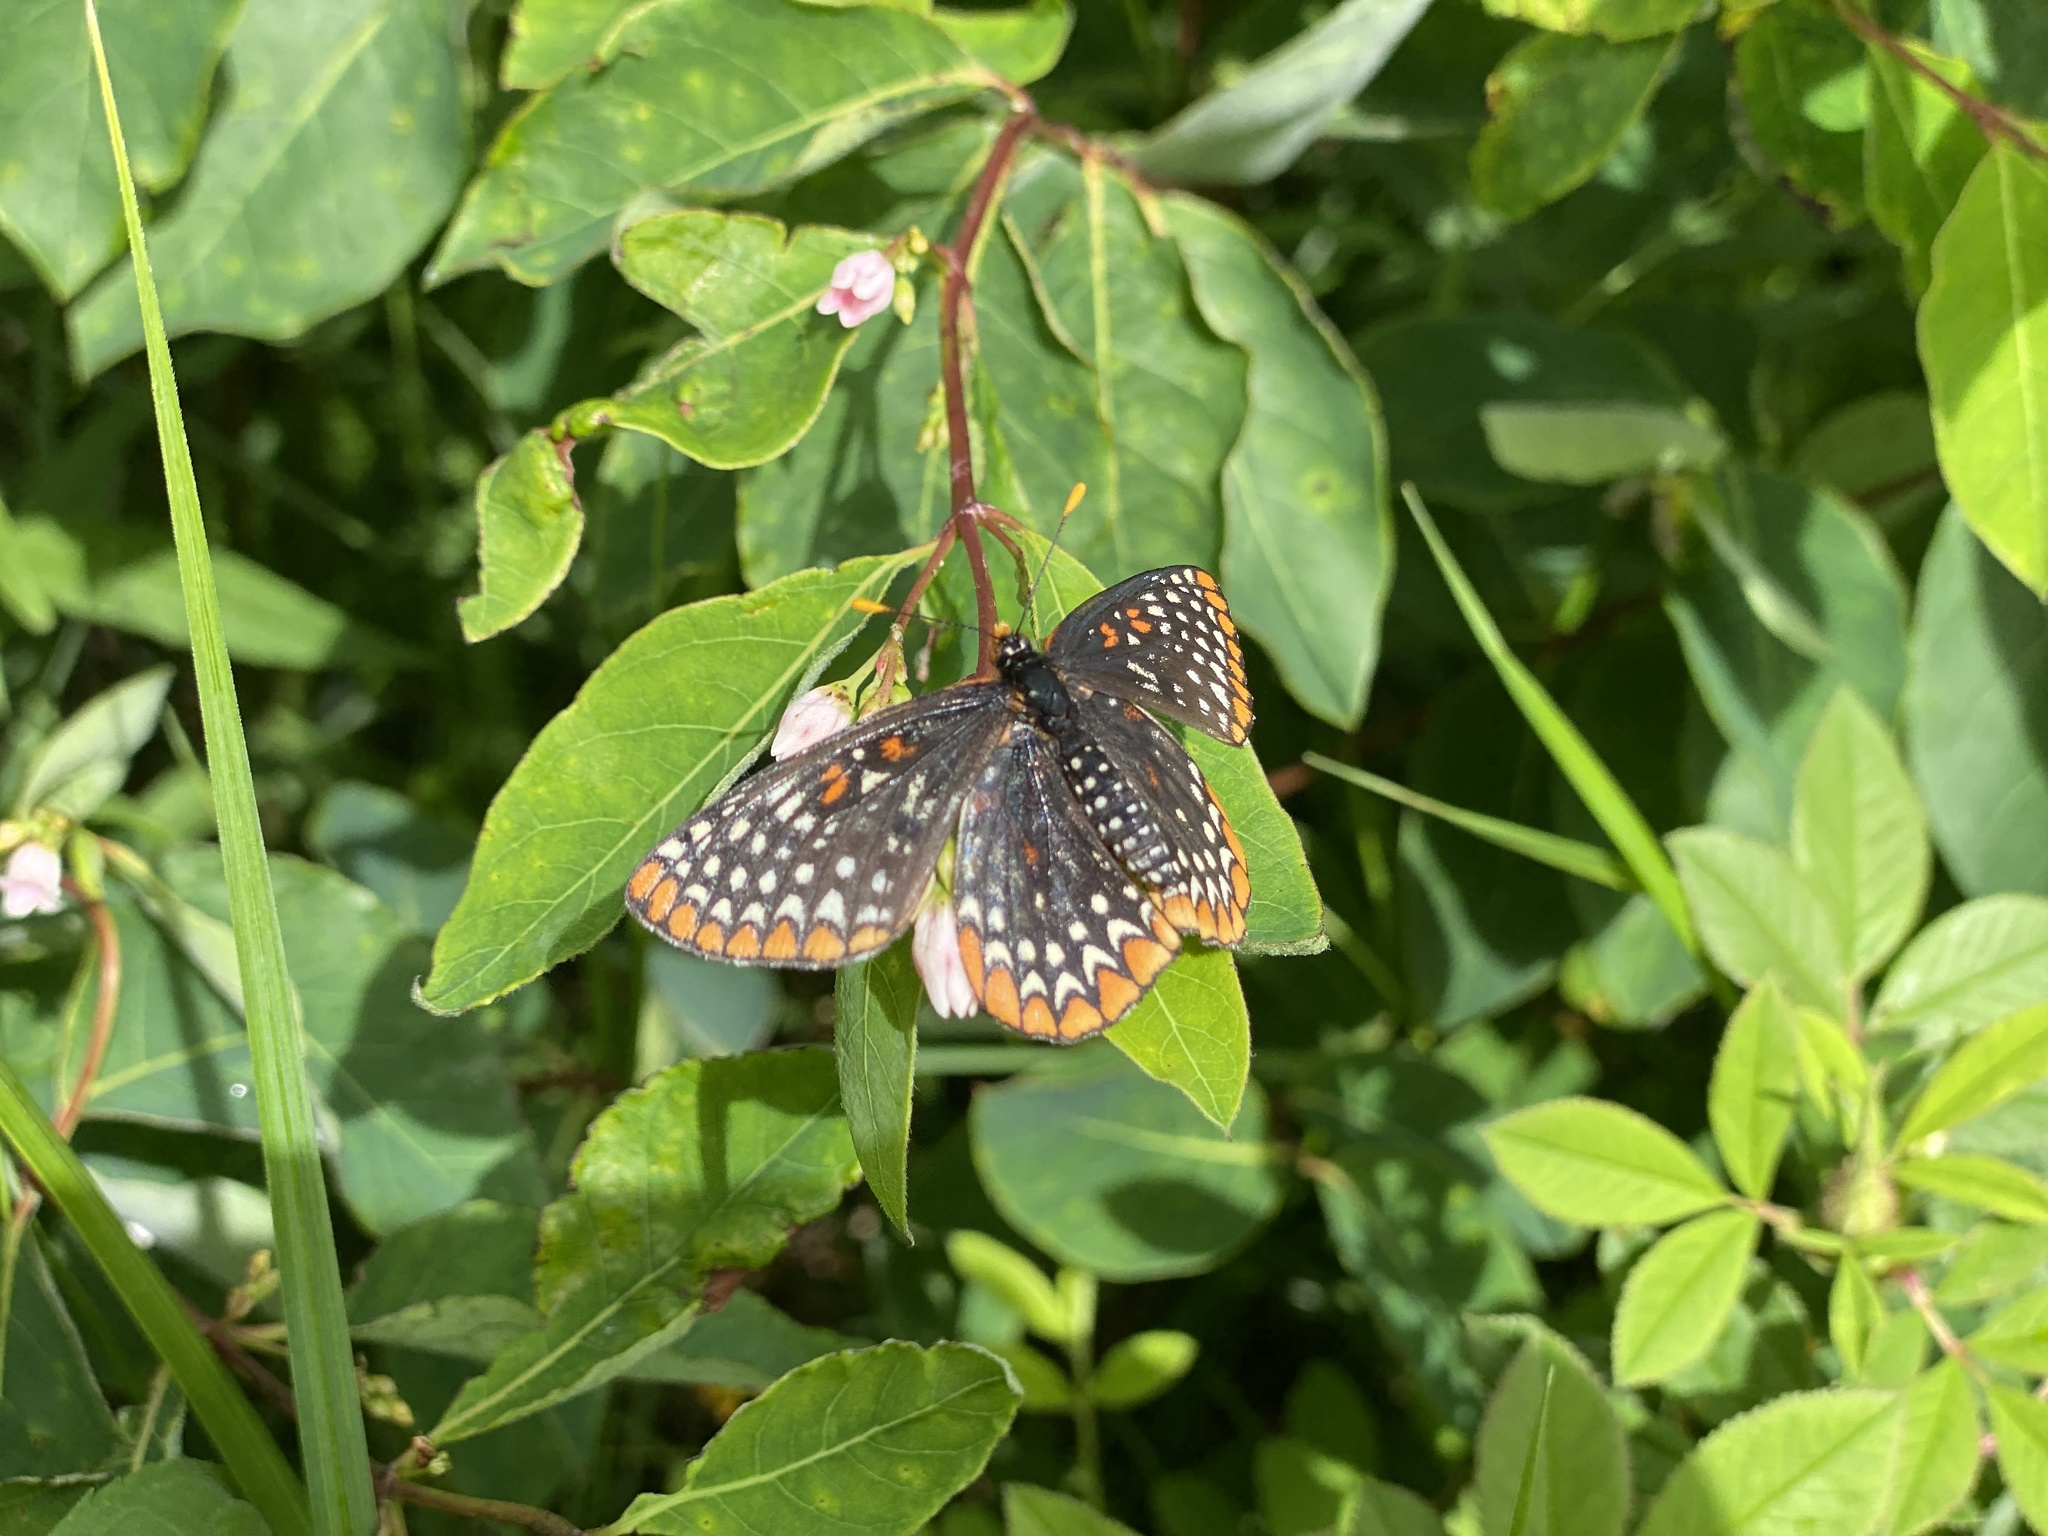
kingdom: Animalia
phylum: Arthropoda
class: Insecta
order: Lepidoptera
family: Nymphalidae
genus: Euphydryas
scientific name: Euphydryas phaeton
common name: Baltimore checkerspot
